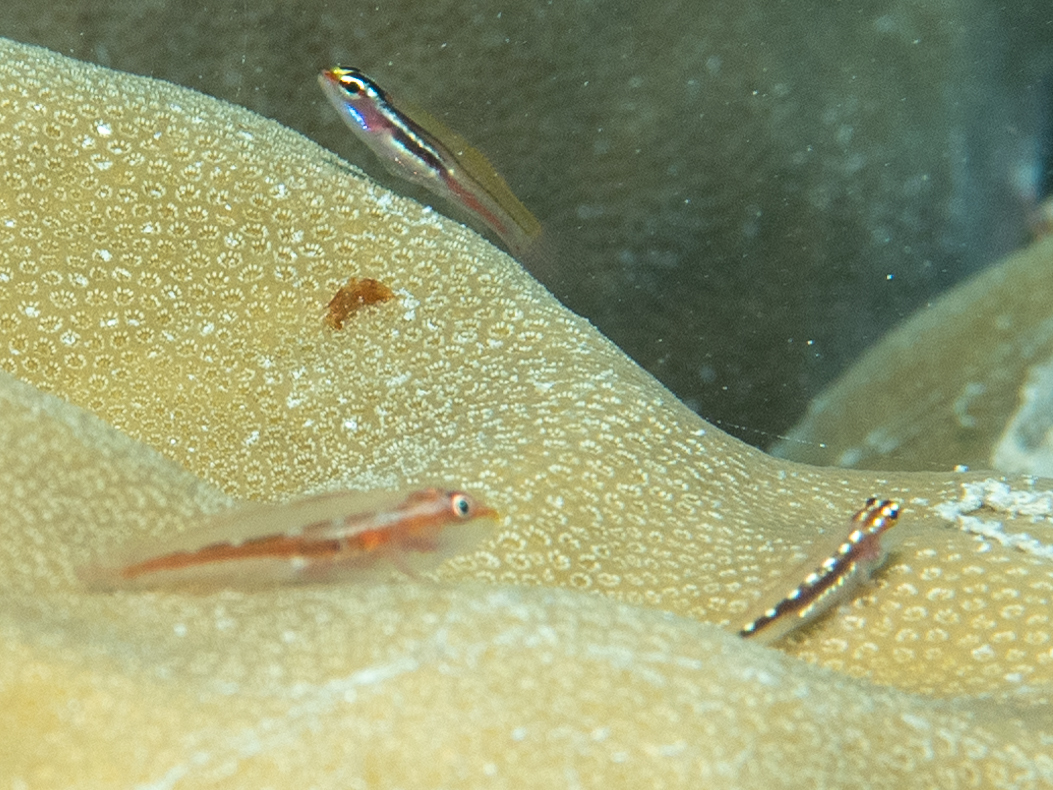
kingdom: Animalia
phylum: Chordata
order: Perciformes
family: Gobiidae
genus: Pleurosicya
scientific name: Pleurosicya micheli
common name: Cling goby
